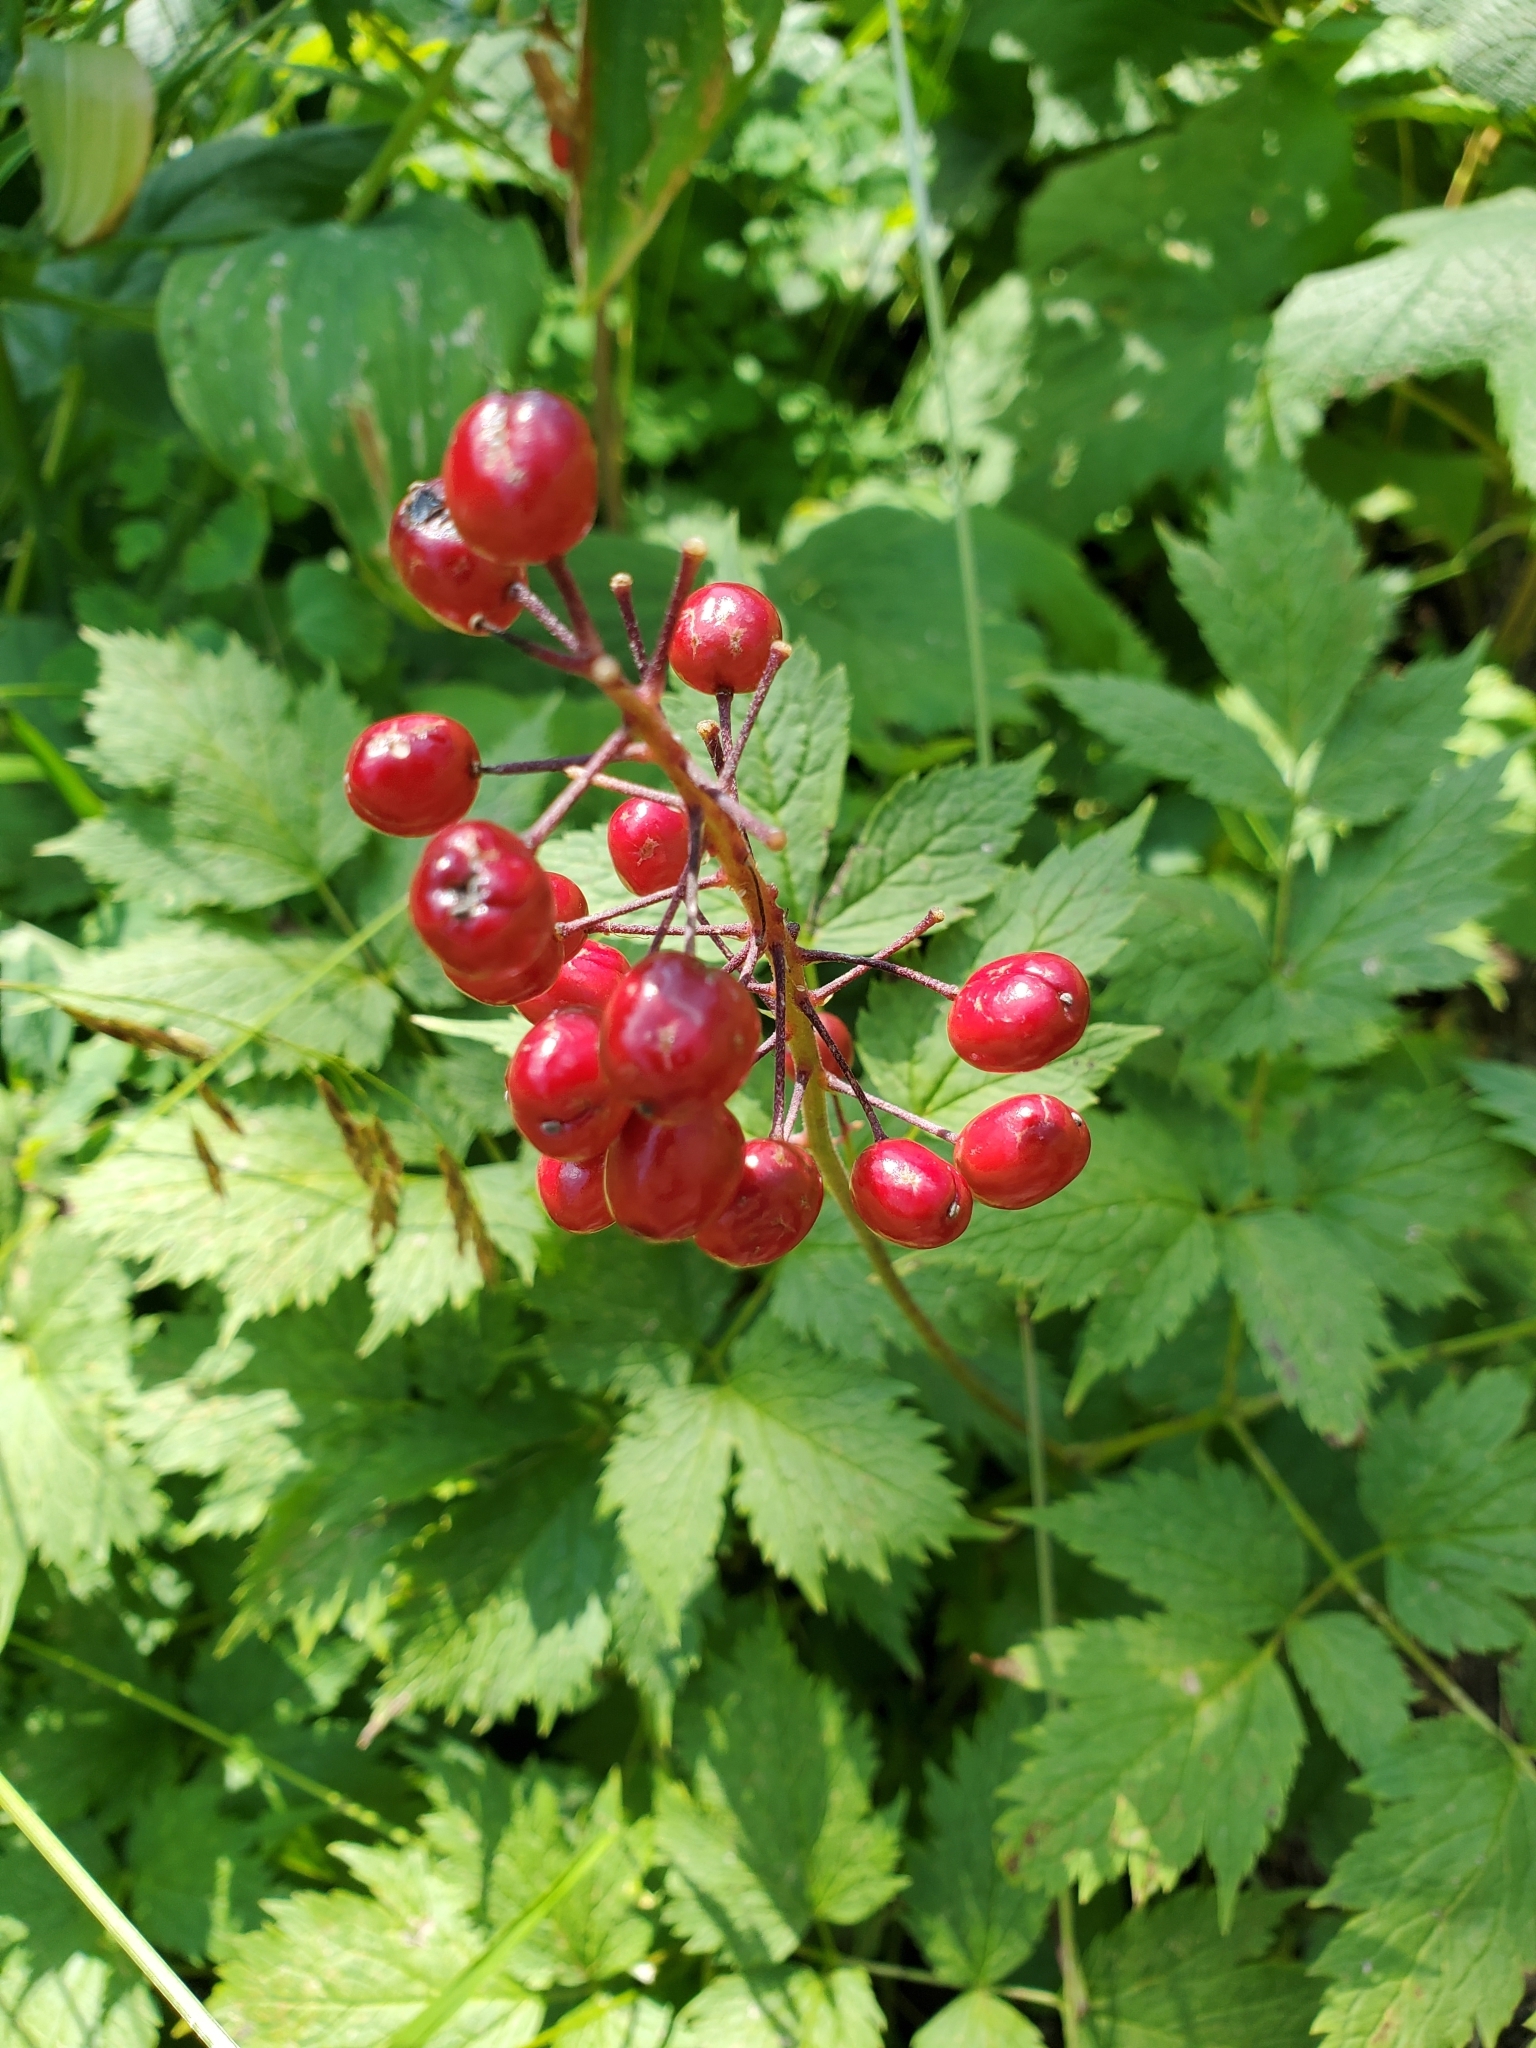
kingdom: Plantae
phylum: Tracheophyta
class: Magnoliopsida
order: Ranunculales
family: Ranunculaceae
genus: Actaea
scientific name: Actaea rubra
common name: Red baneberry
